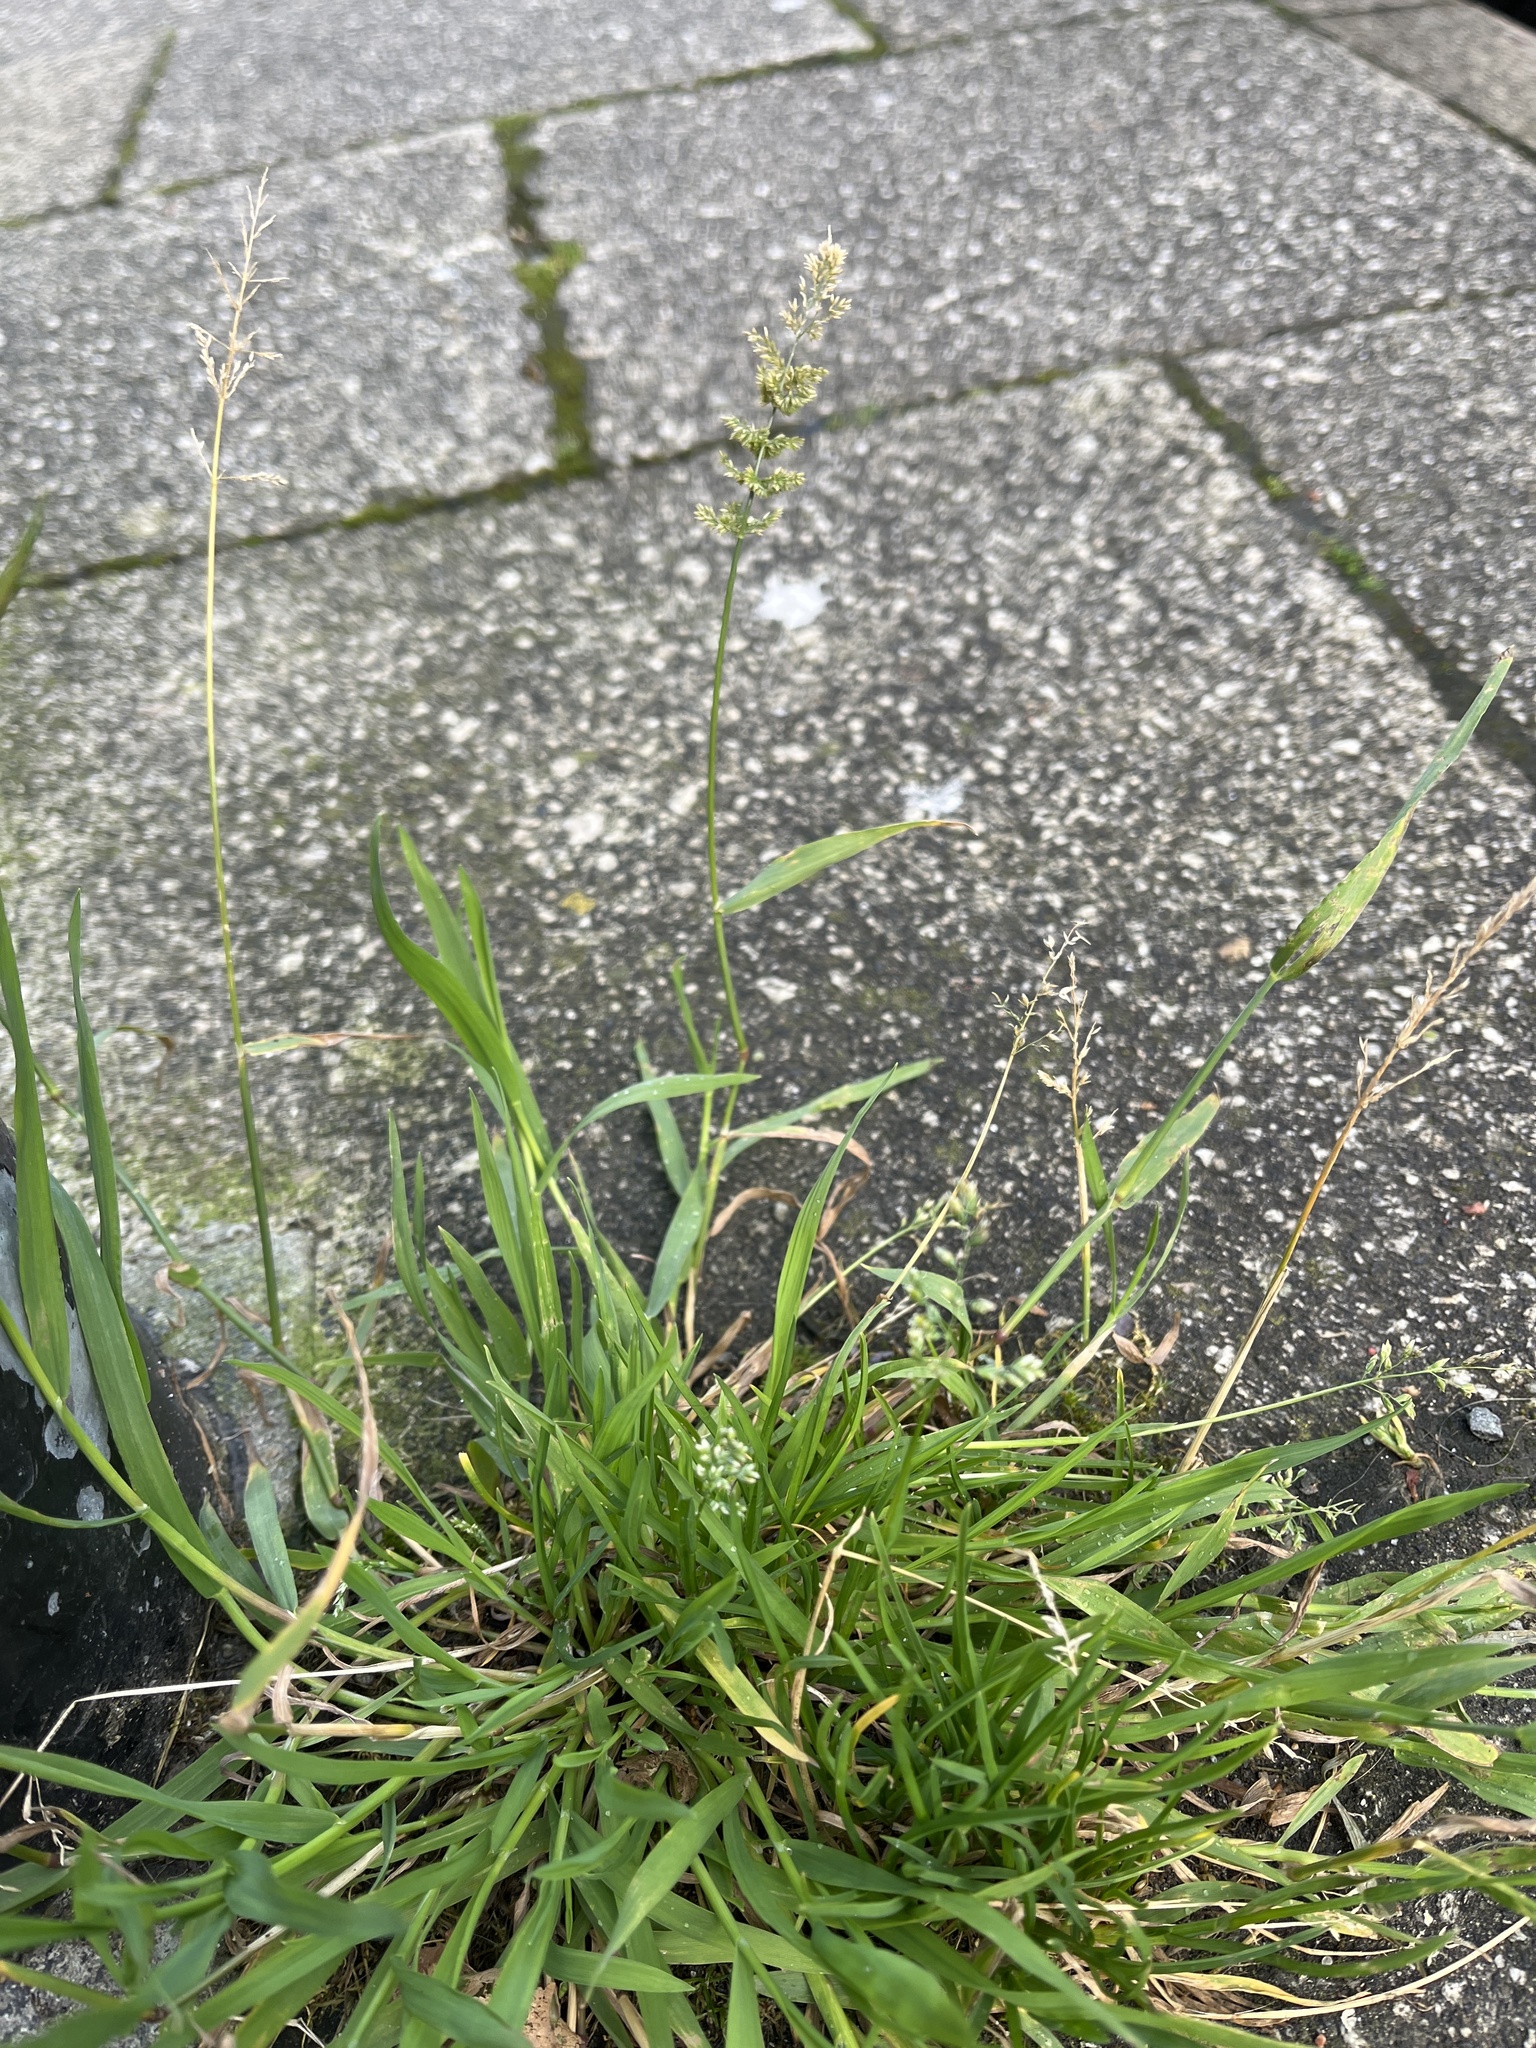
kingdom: Plantae
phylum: Tracheophyta
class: Liliopsida
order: Poales
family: Poaceae
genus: Polypogon
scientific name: Polypogon viridis
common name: Water bent
